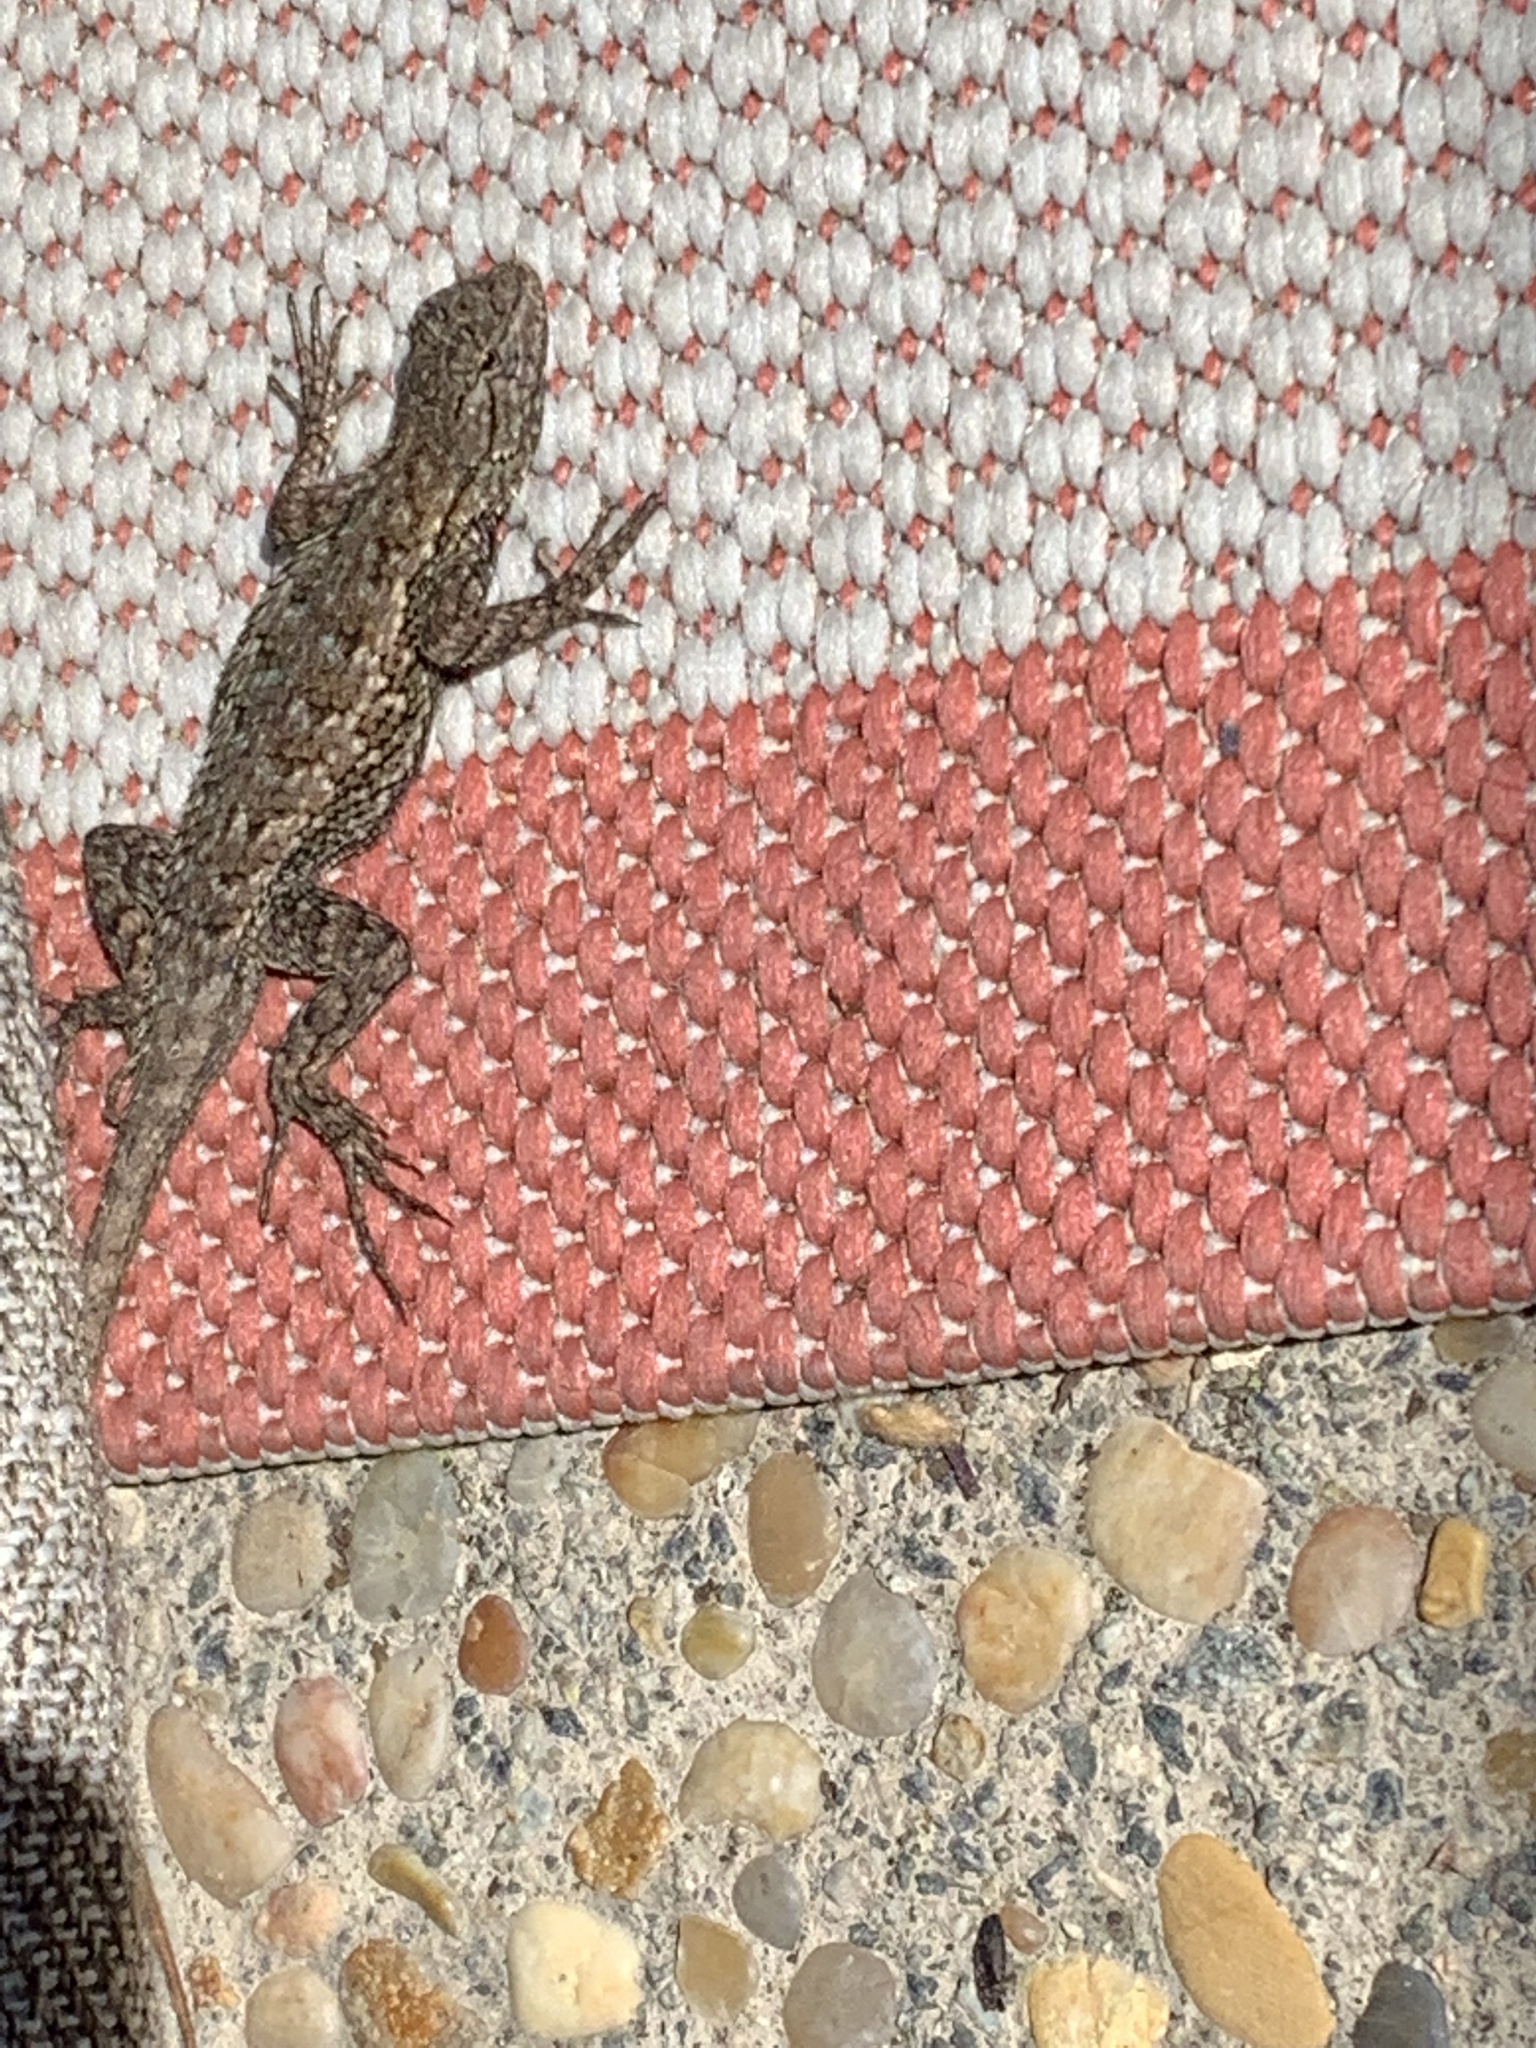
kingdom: Animalia
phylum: Chordata
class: Squamata
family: Phrynosomatidae
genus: Sceloporus
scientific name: Sceloporus occidentalis
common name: Western fence lizard
